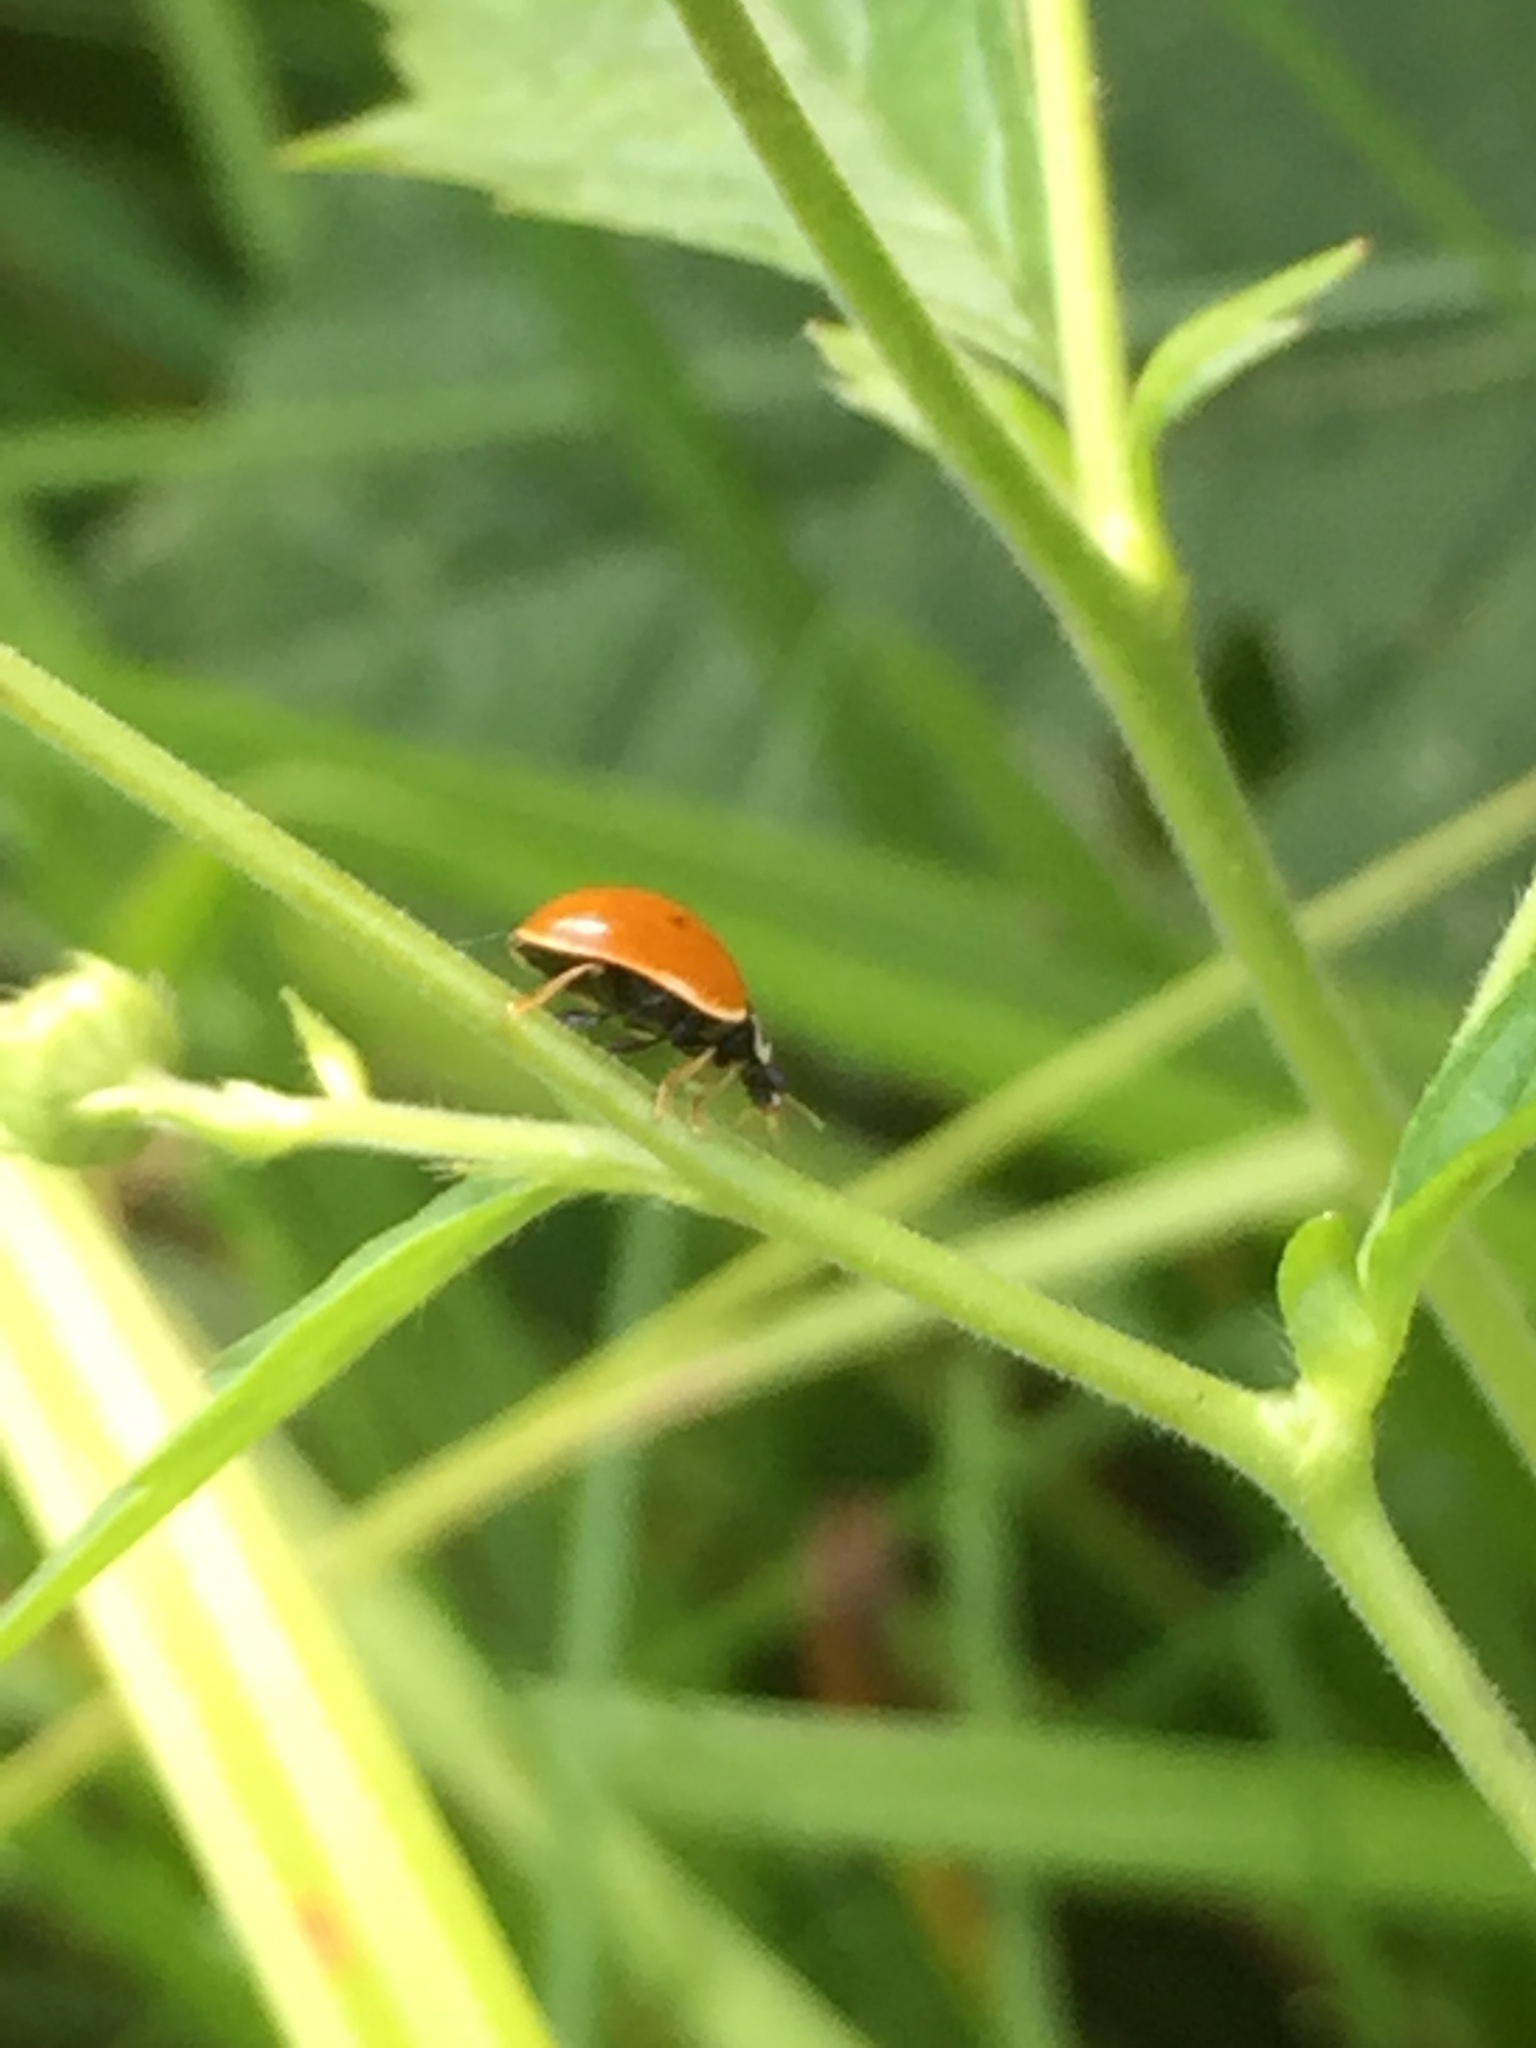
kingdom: Animalia
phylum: Arthropoda
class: Insecta
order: Coleoptera
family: Coccinellidae
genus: Cycloneda
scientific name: Cycloneda munda
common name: Polished lady beetle
